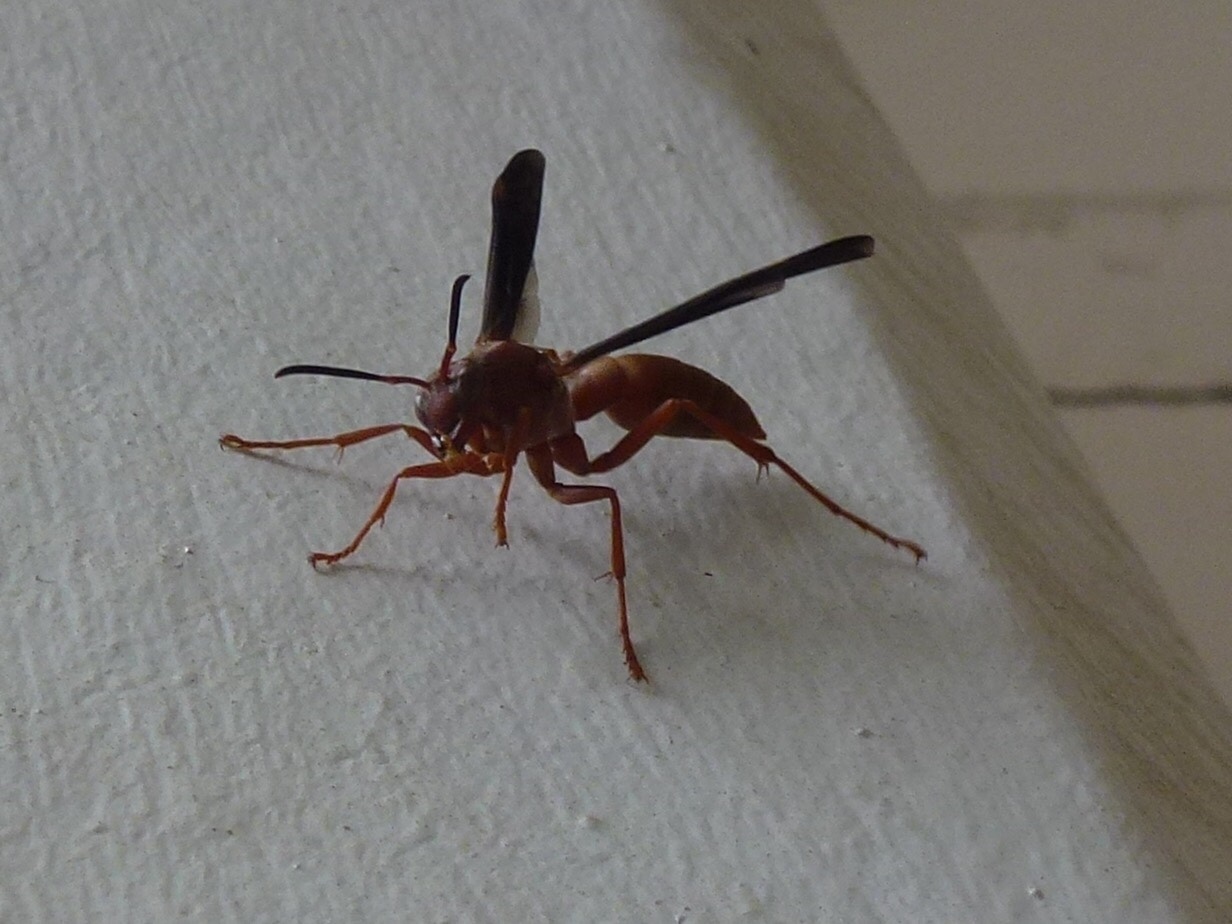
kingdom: Animalia
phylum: Arthropoda
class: Insecta
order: Hymenoptera
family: Eumenidae
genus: Polistes
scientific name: Polistes
